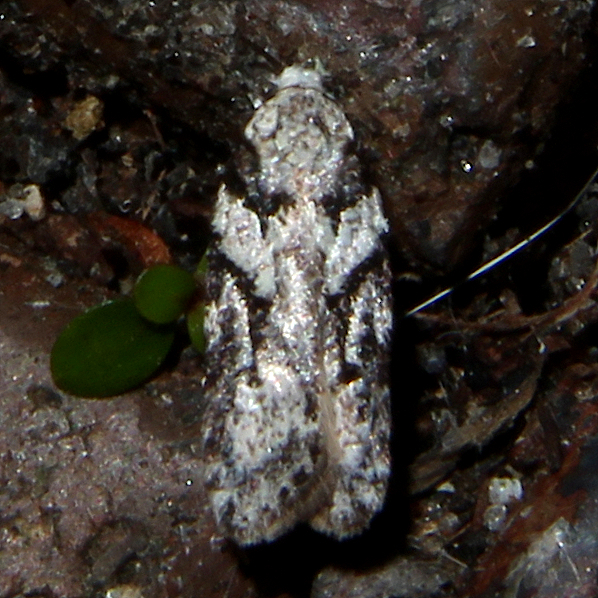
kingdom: Animalia
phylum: Arthropoda
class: Insecta
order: Lepidoptera
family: Oecophoridae
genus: Izatha
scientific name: Izatha mesoschista
